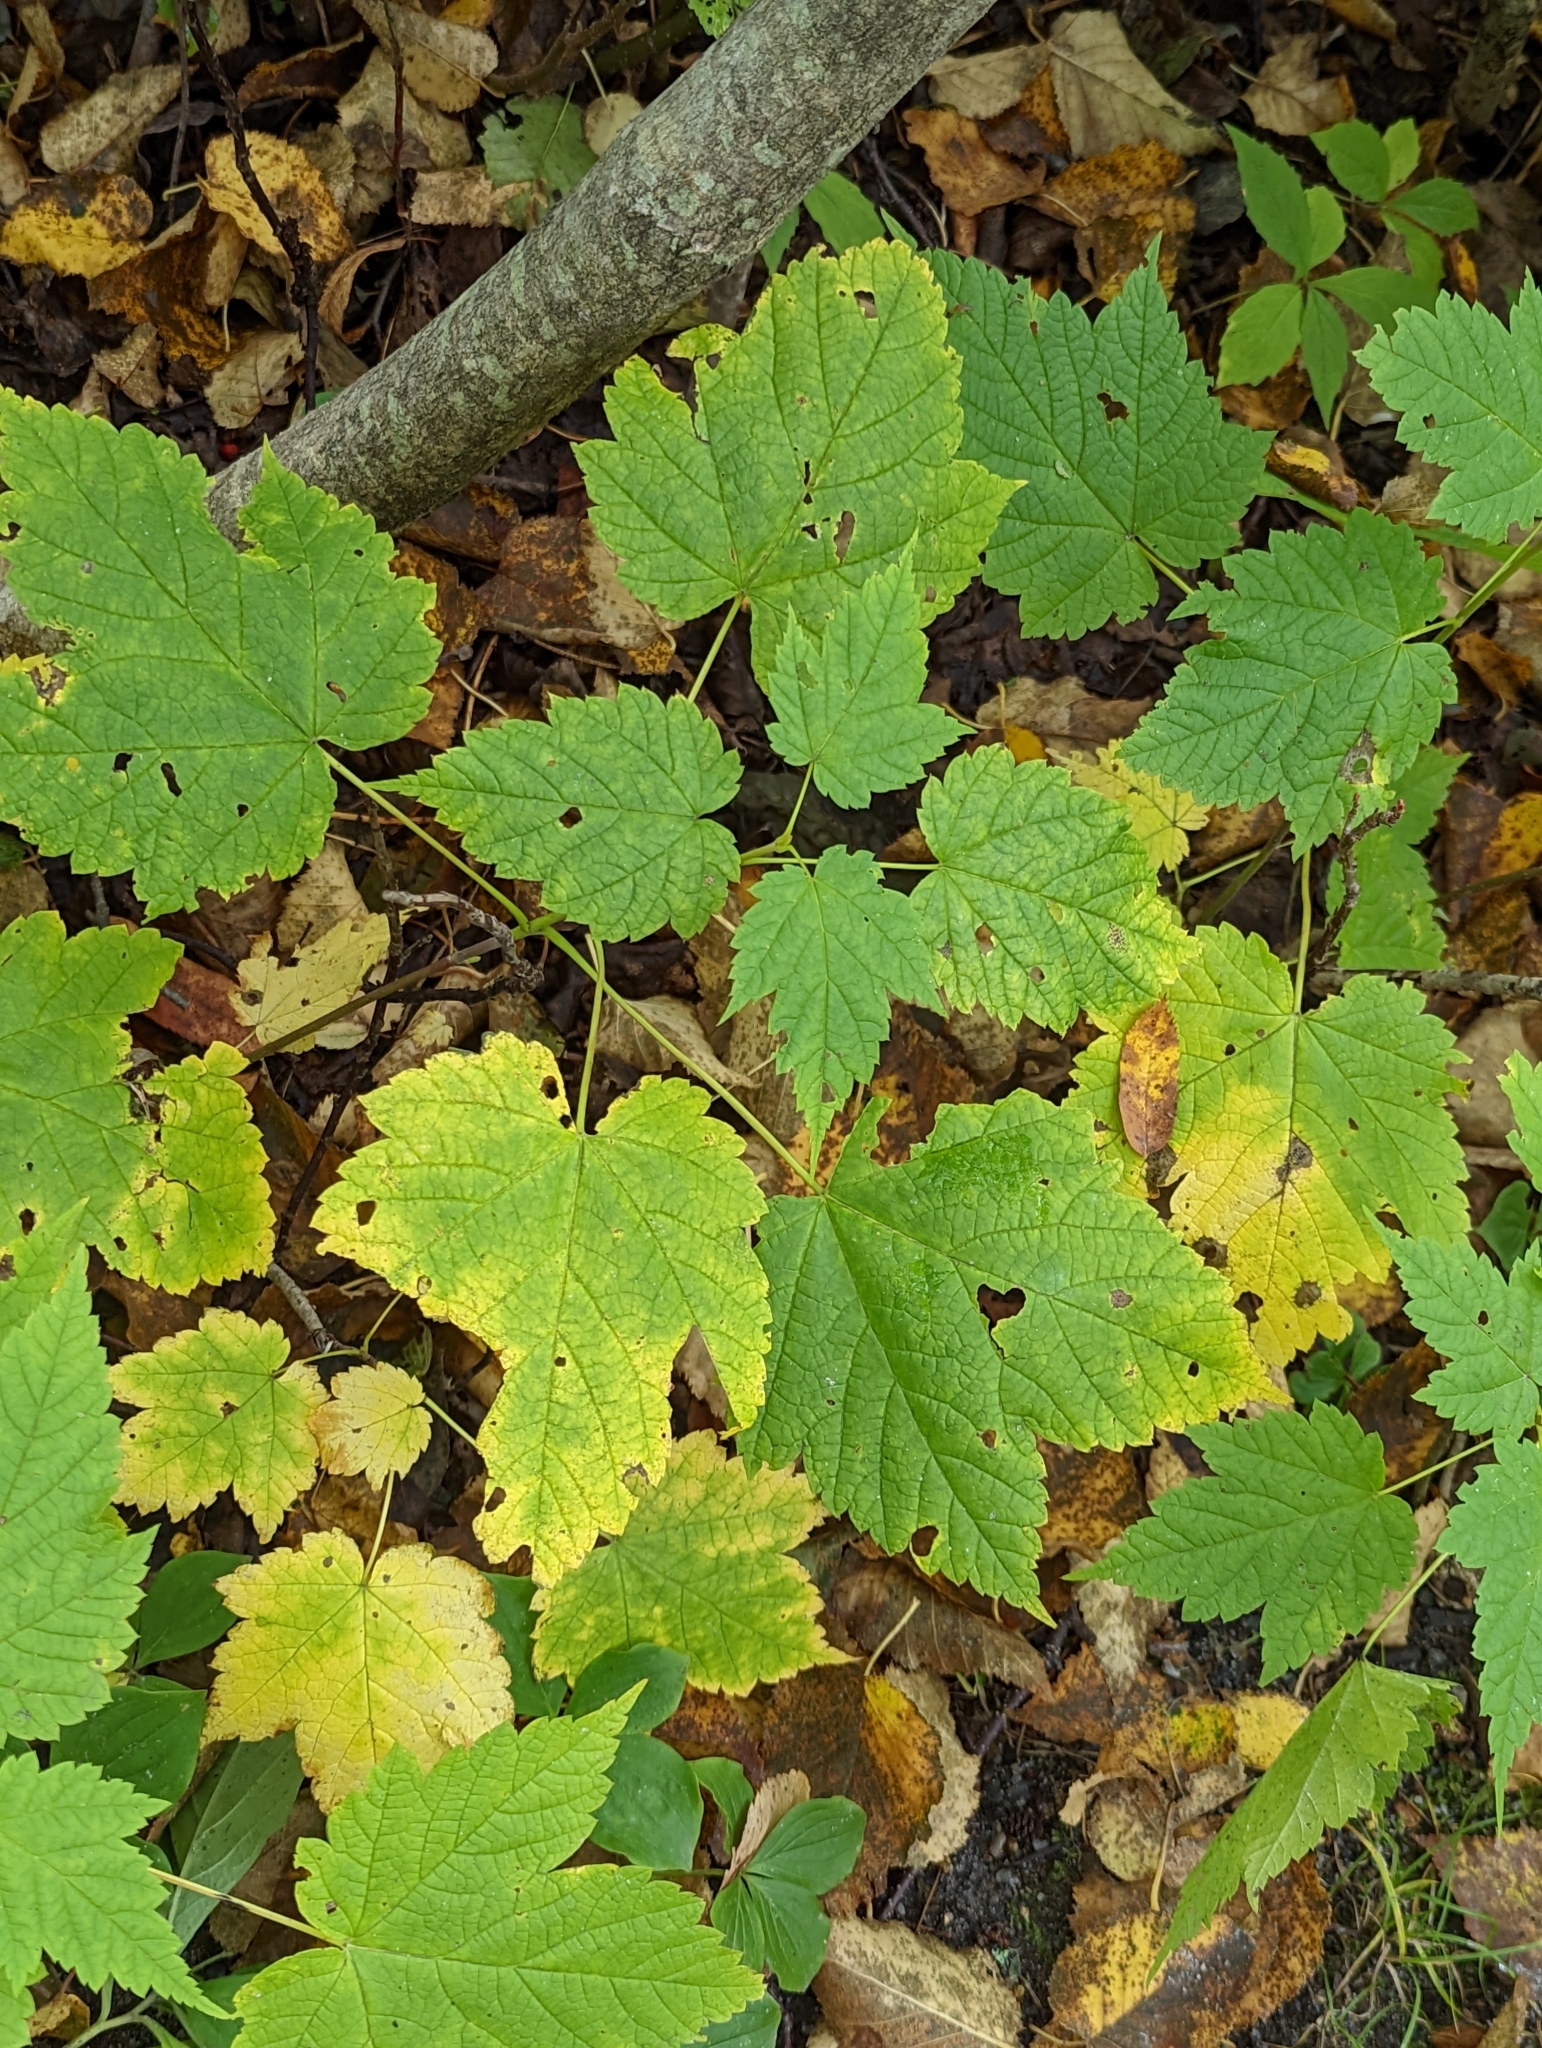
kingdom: Plantae
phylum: Tracheophyta
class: Magnoliopsida
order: Sapindales
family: Sapindaceae
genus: Acer
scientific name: Acer spicatum
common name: Mountain maple
